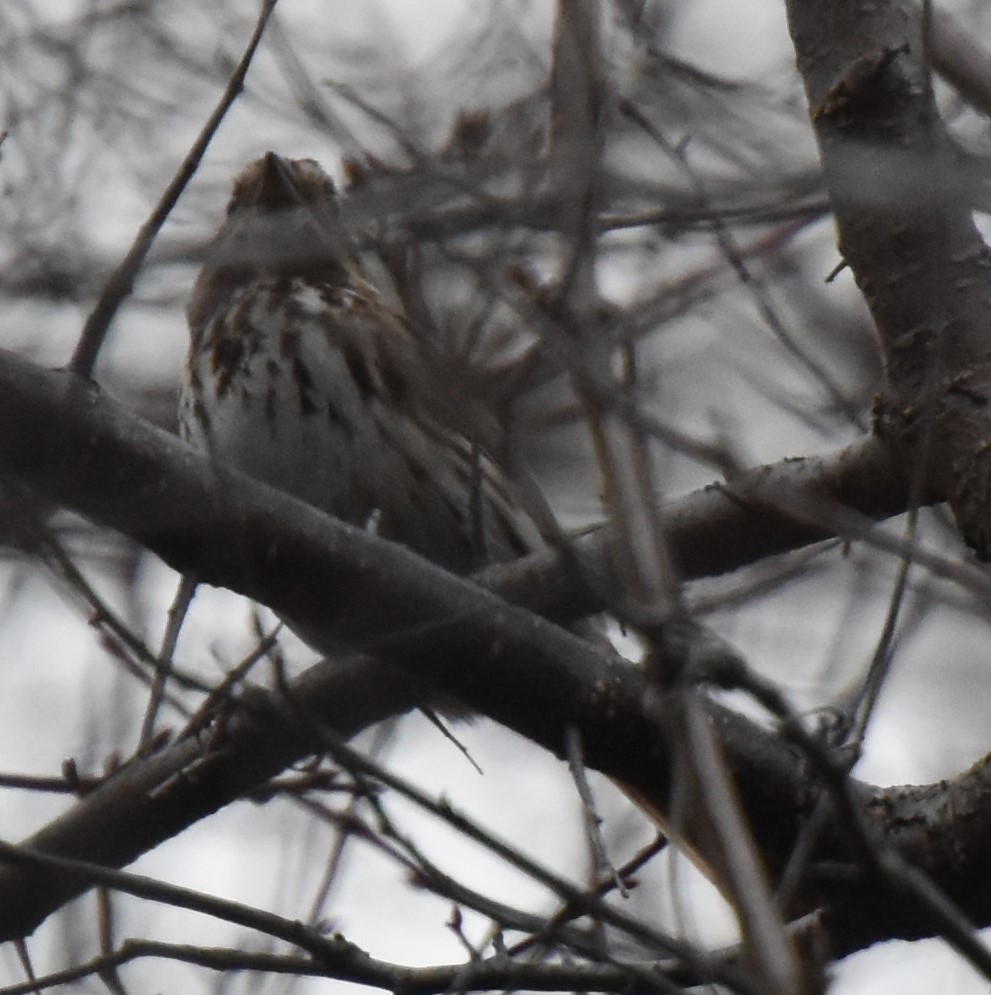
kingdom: Animalia
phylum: Chordata
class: Aves
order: Passeriformes
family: Passerellidae
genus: Melospiza
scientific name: Melospiza melodia
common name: Song sparrow
